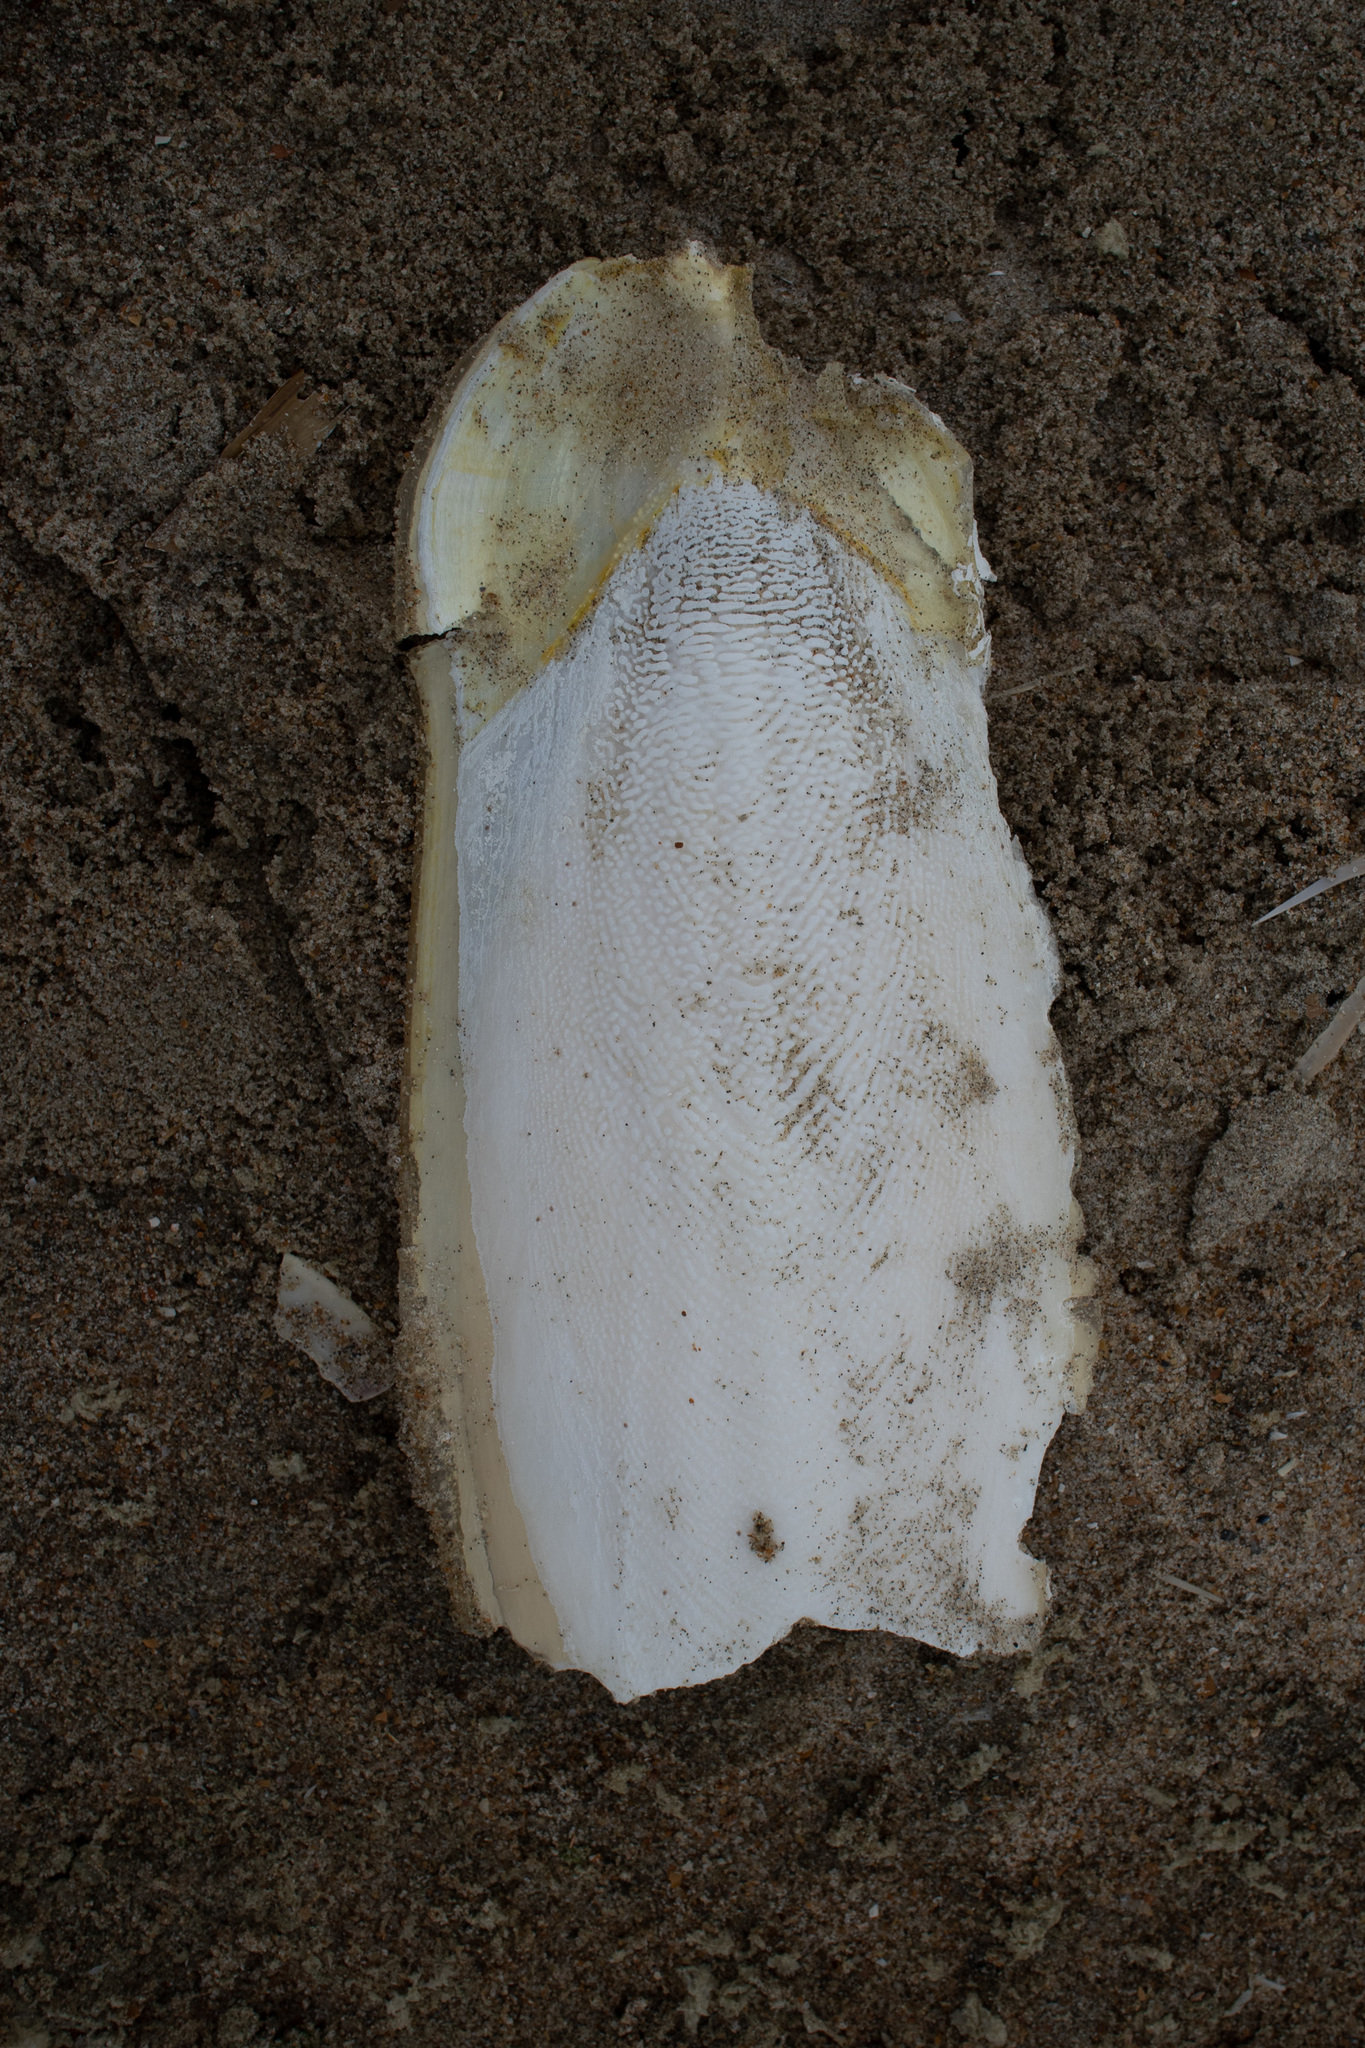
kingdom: Animalia
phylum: Mollusca
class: Cephalopoda
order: Sepiida
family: Sepiidae
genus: Sepia
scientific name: Sepia officinalis
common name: Common cuttlefish
